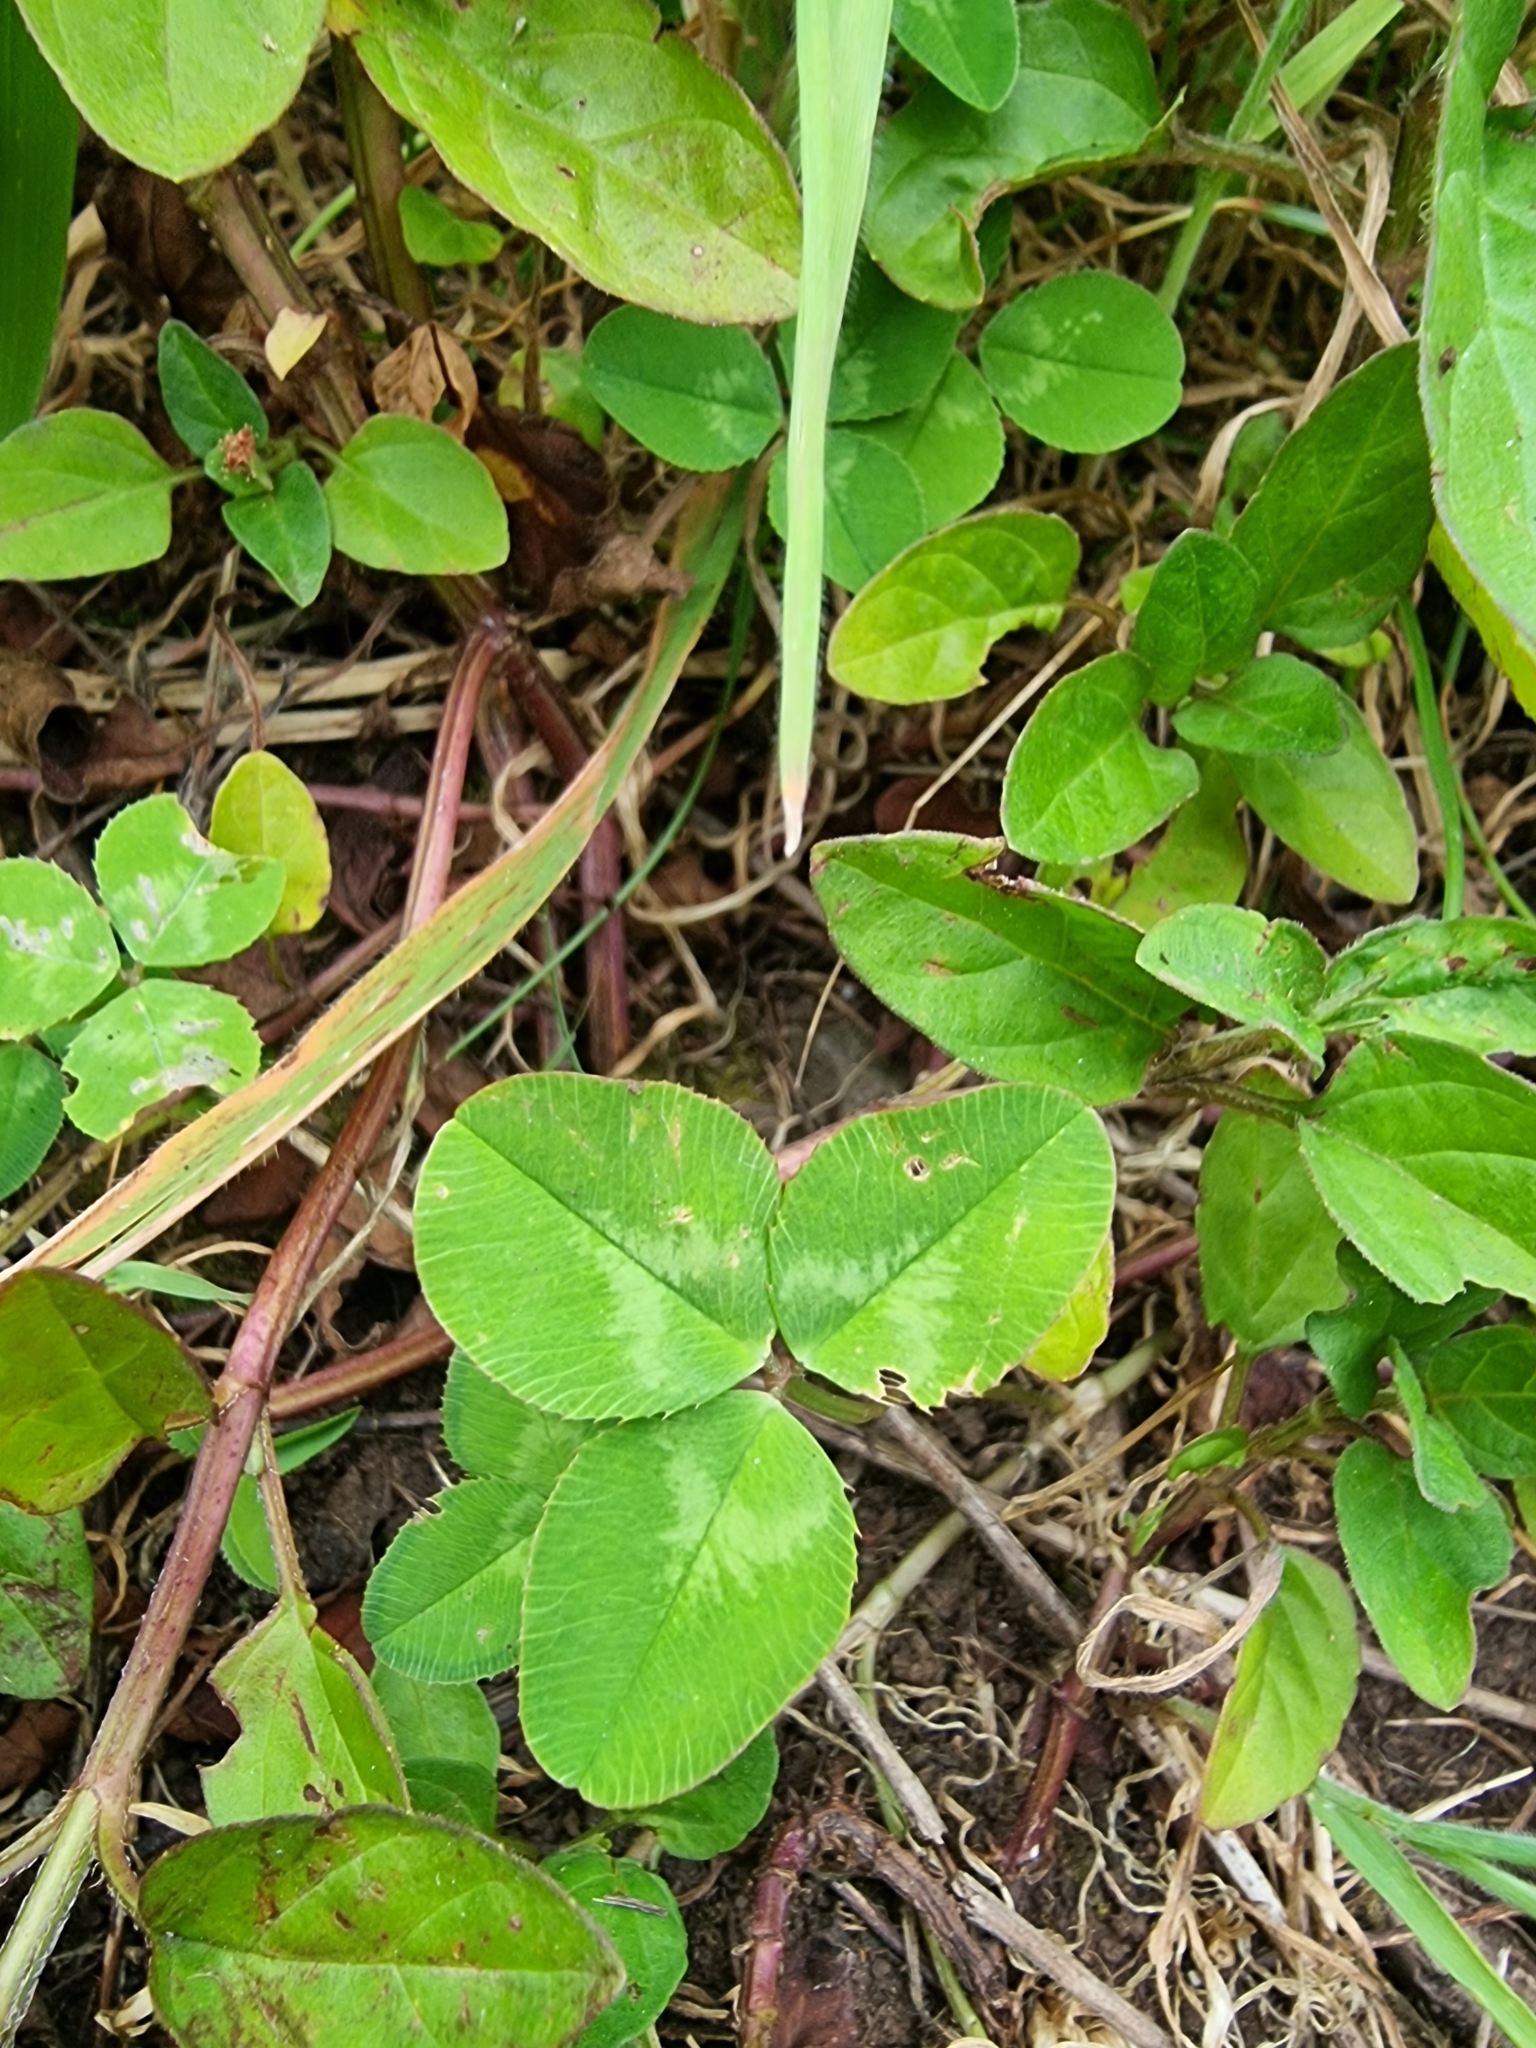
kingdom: Plantae
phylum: Tracheophyta
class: Magnoliopsida
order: Fabales
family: Fabaceae
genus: Trifolium
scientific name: Trifolium repens
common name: White clover
